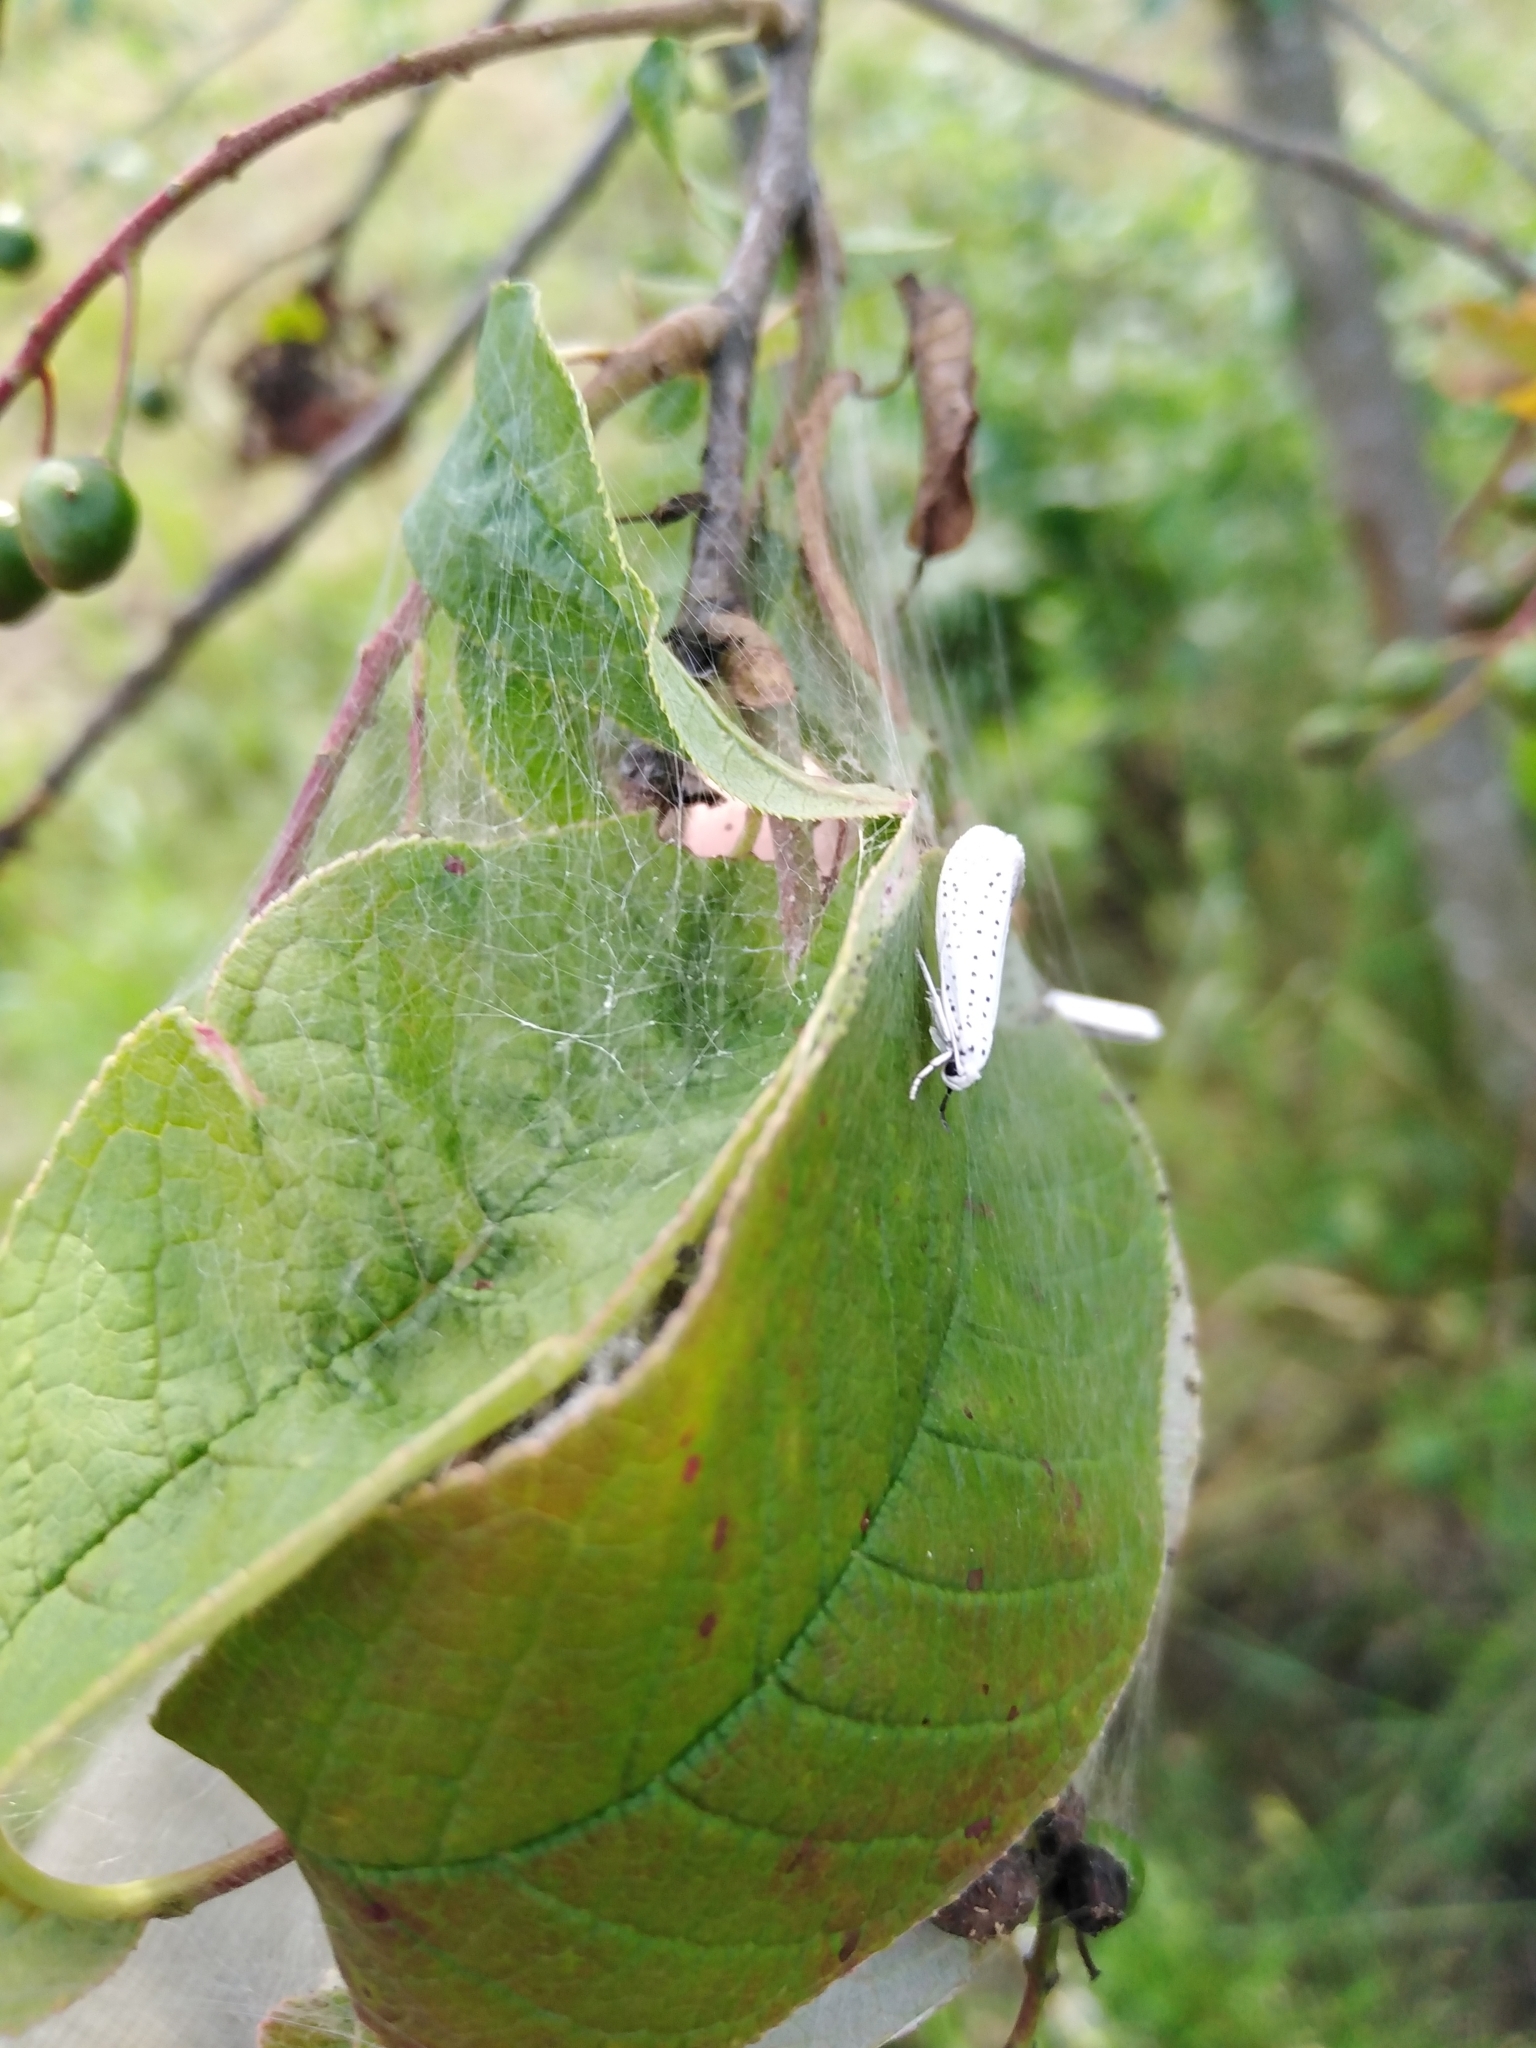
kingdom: Animalia
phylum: Arthropoda
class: Insecta
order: Lepidoptera
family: Yponomeutidae
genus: Yponomeuta
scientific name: Yponomeuta evonymella
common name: Bird-cherry ermine
